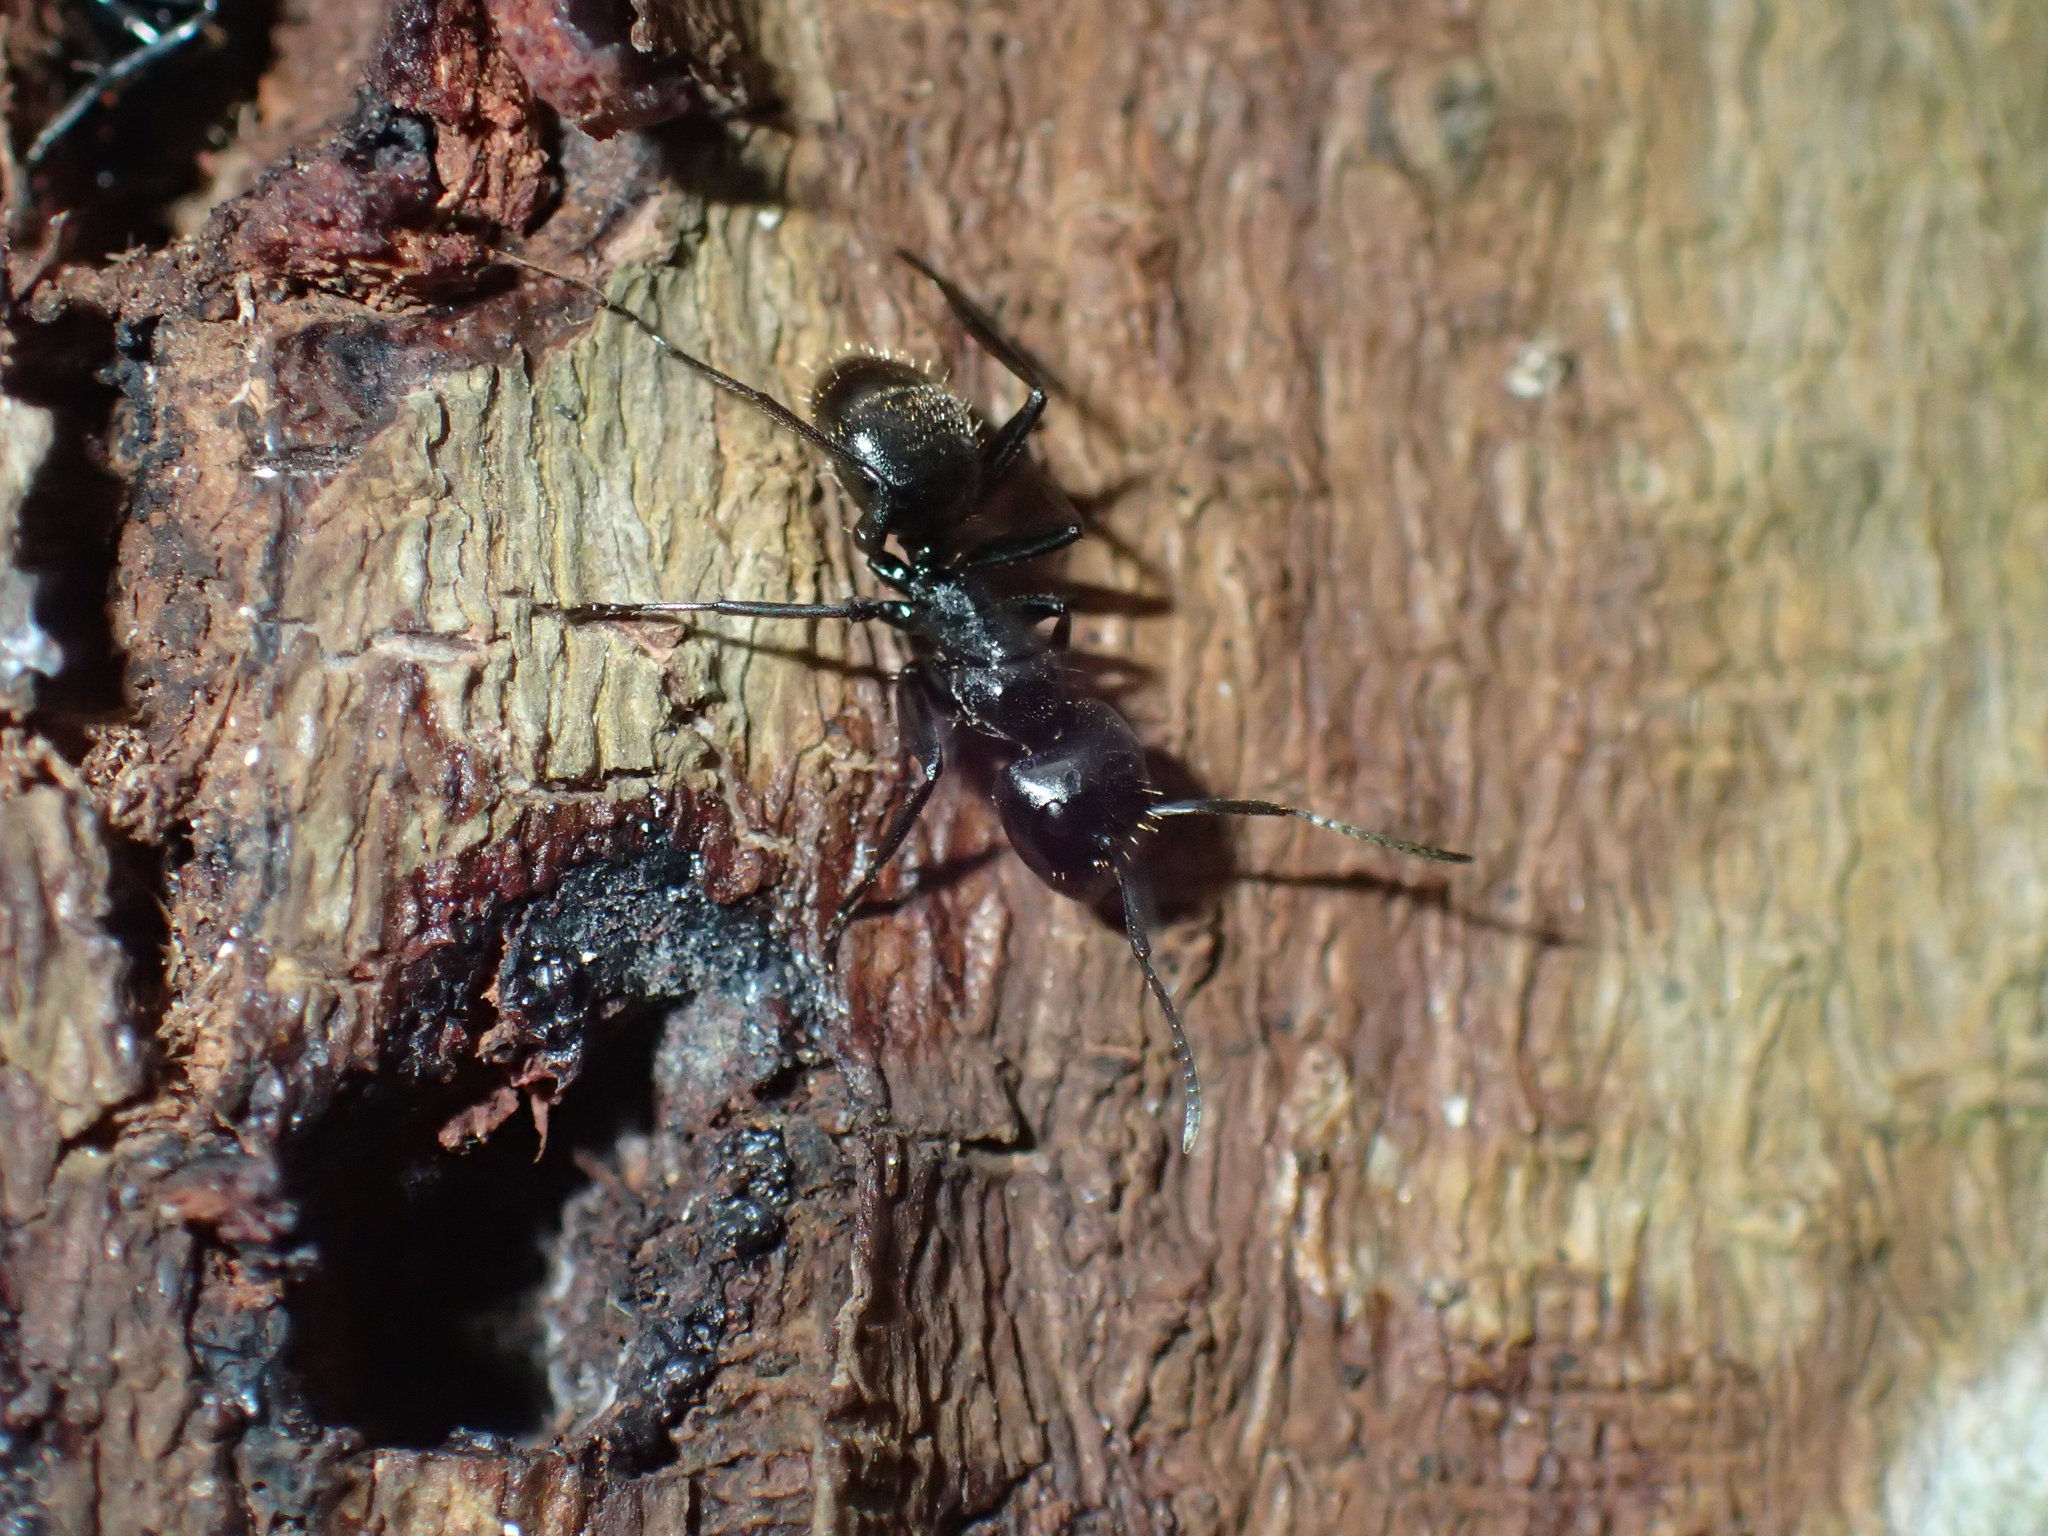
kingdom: Animalia
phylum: Arthropoda
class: Insecta
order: Hymenoptera
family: Formicidae
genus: Camponotus
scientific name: Camponotus arminius
